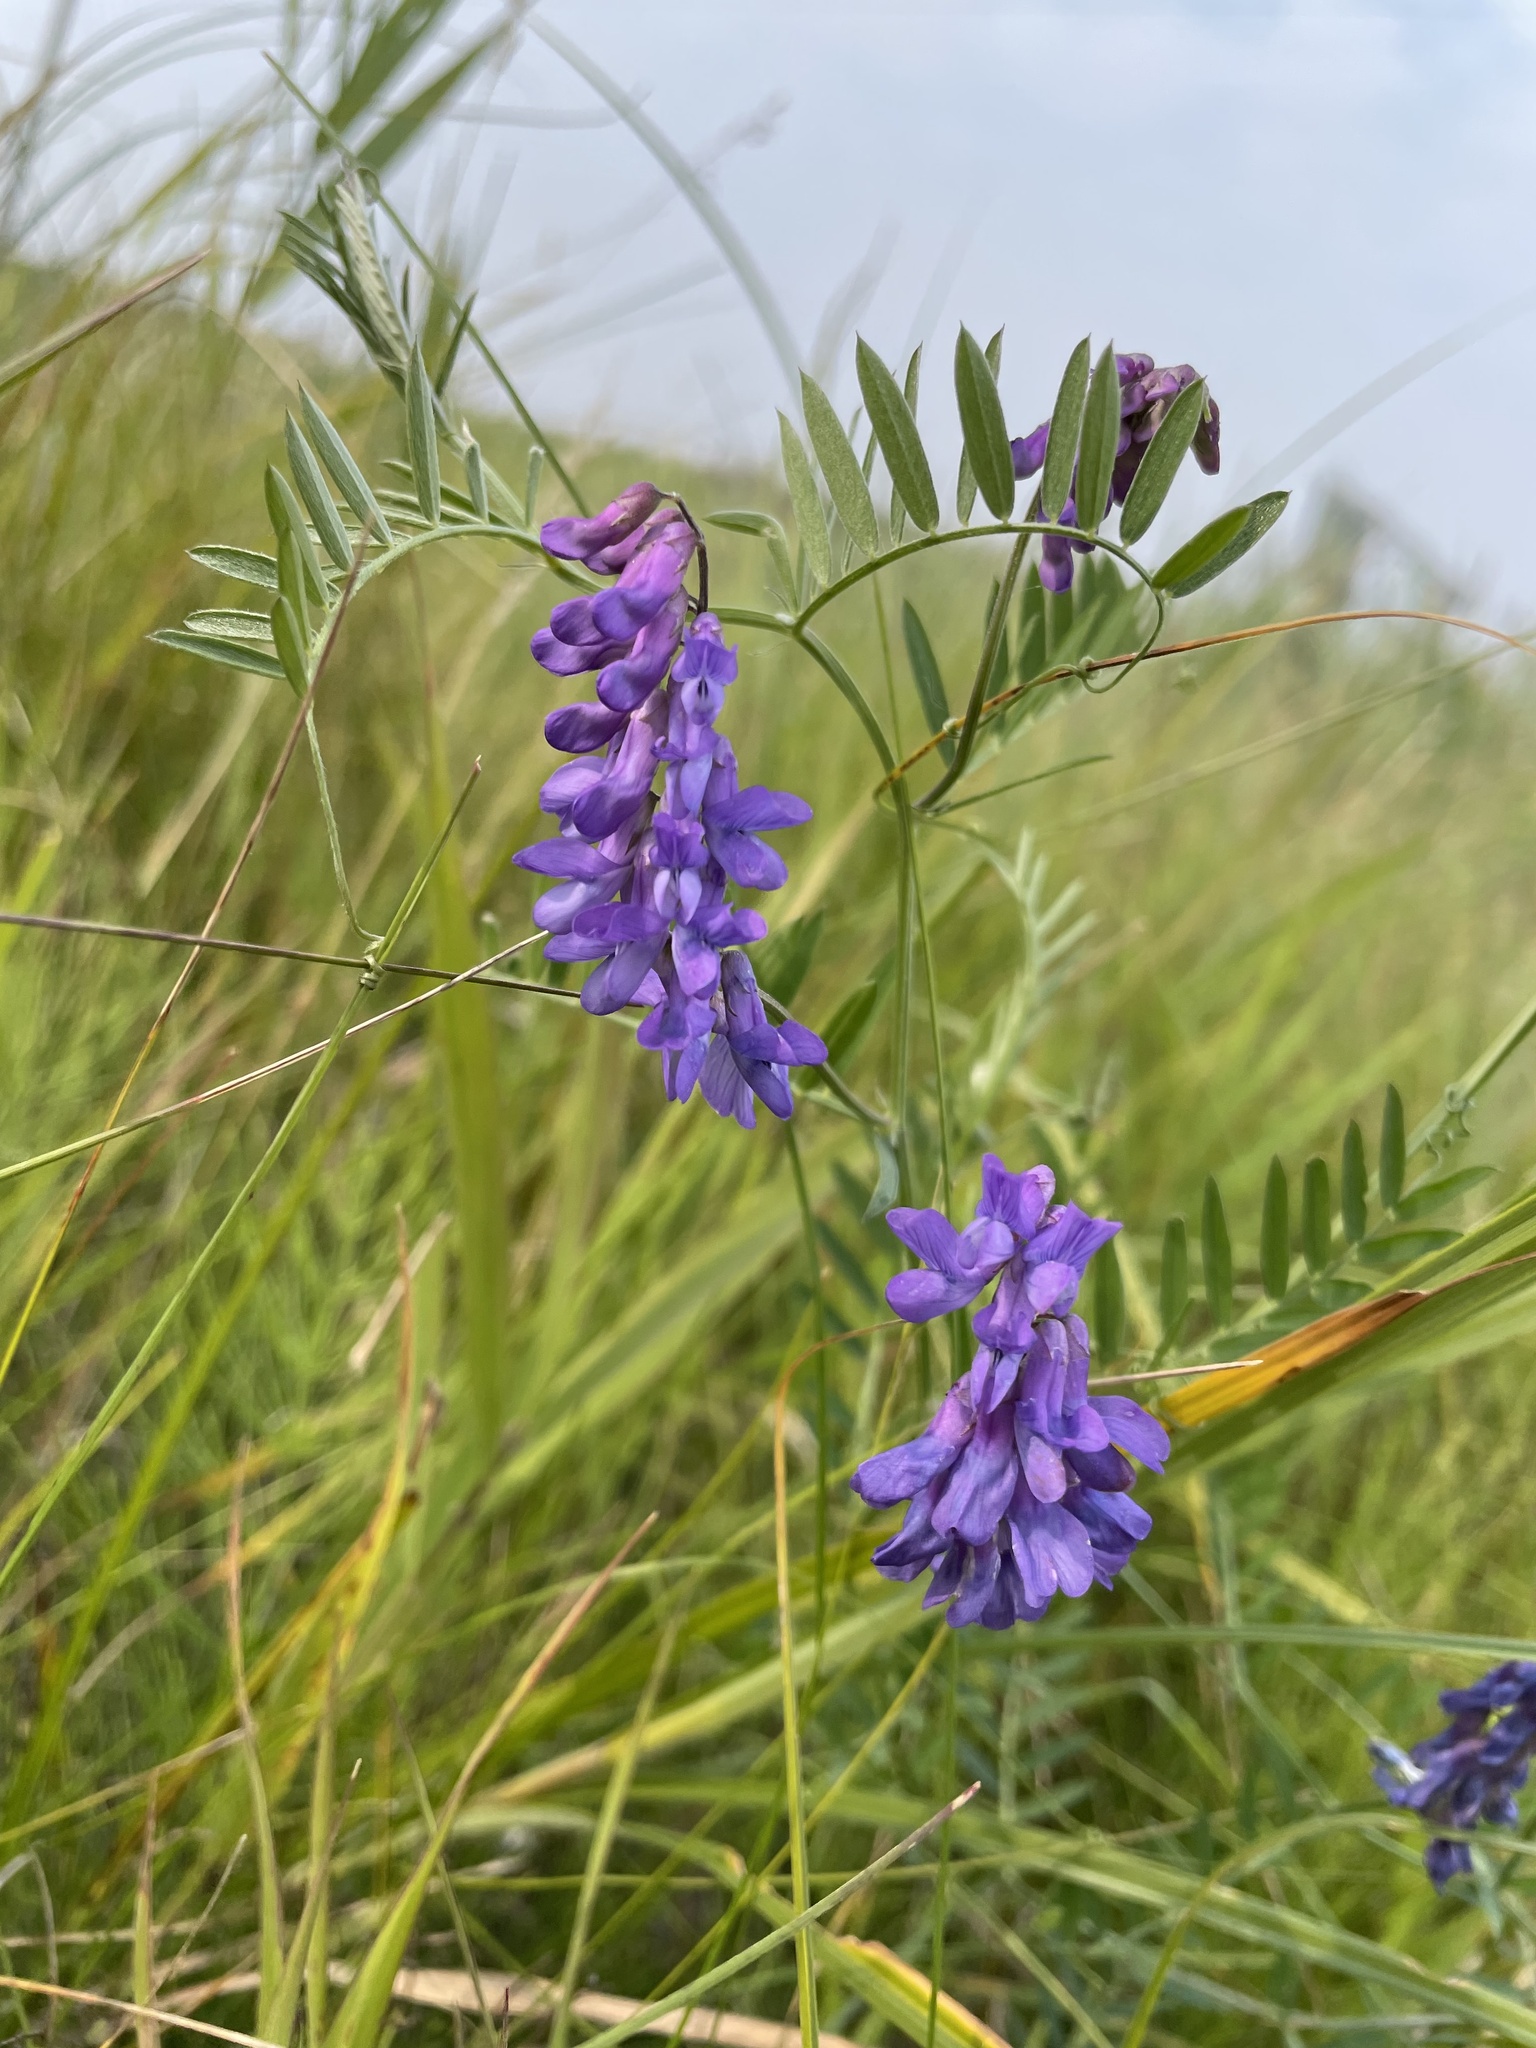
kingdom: Plantae
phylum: Tracheophyta
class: Magnoliopsida
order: Fabales
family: Fabaceae
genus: Vicia
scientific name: Vicia cracca
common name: Bird vetch
